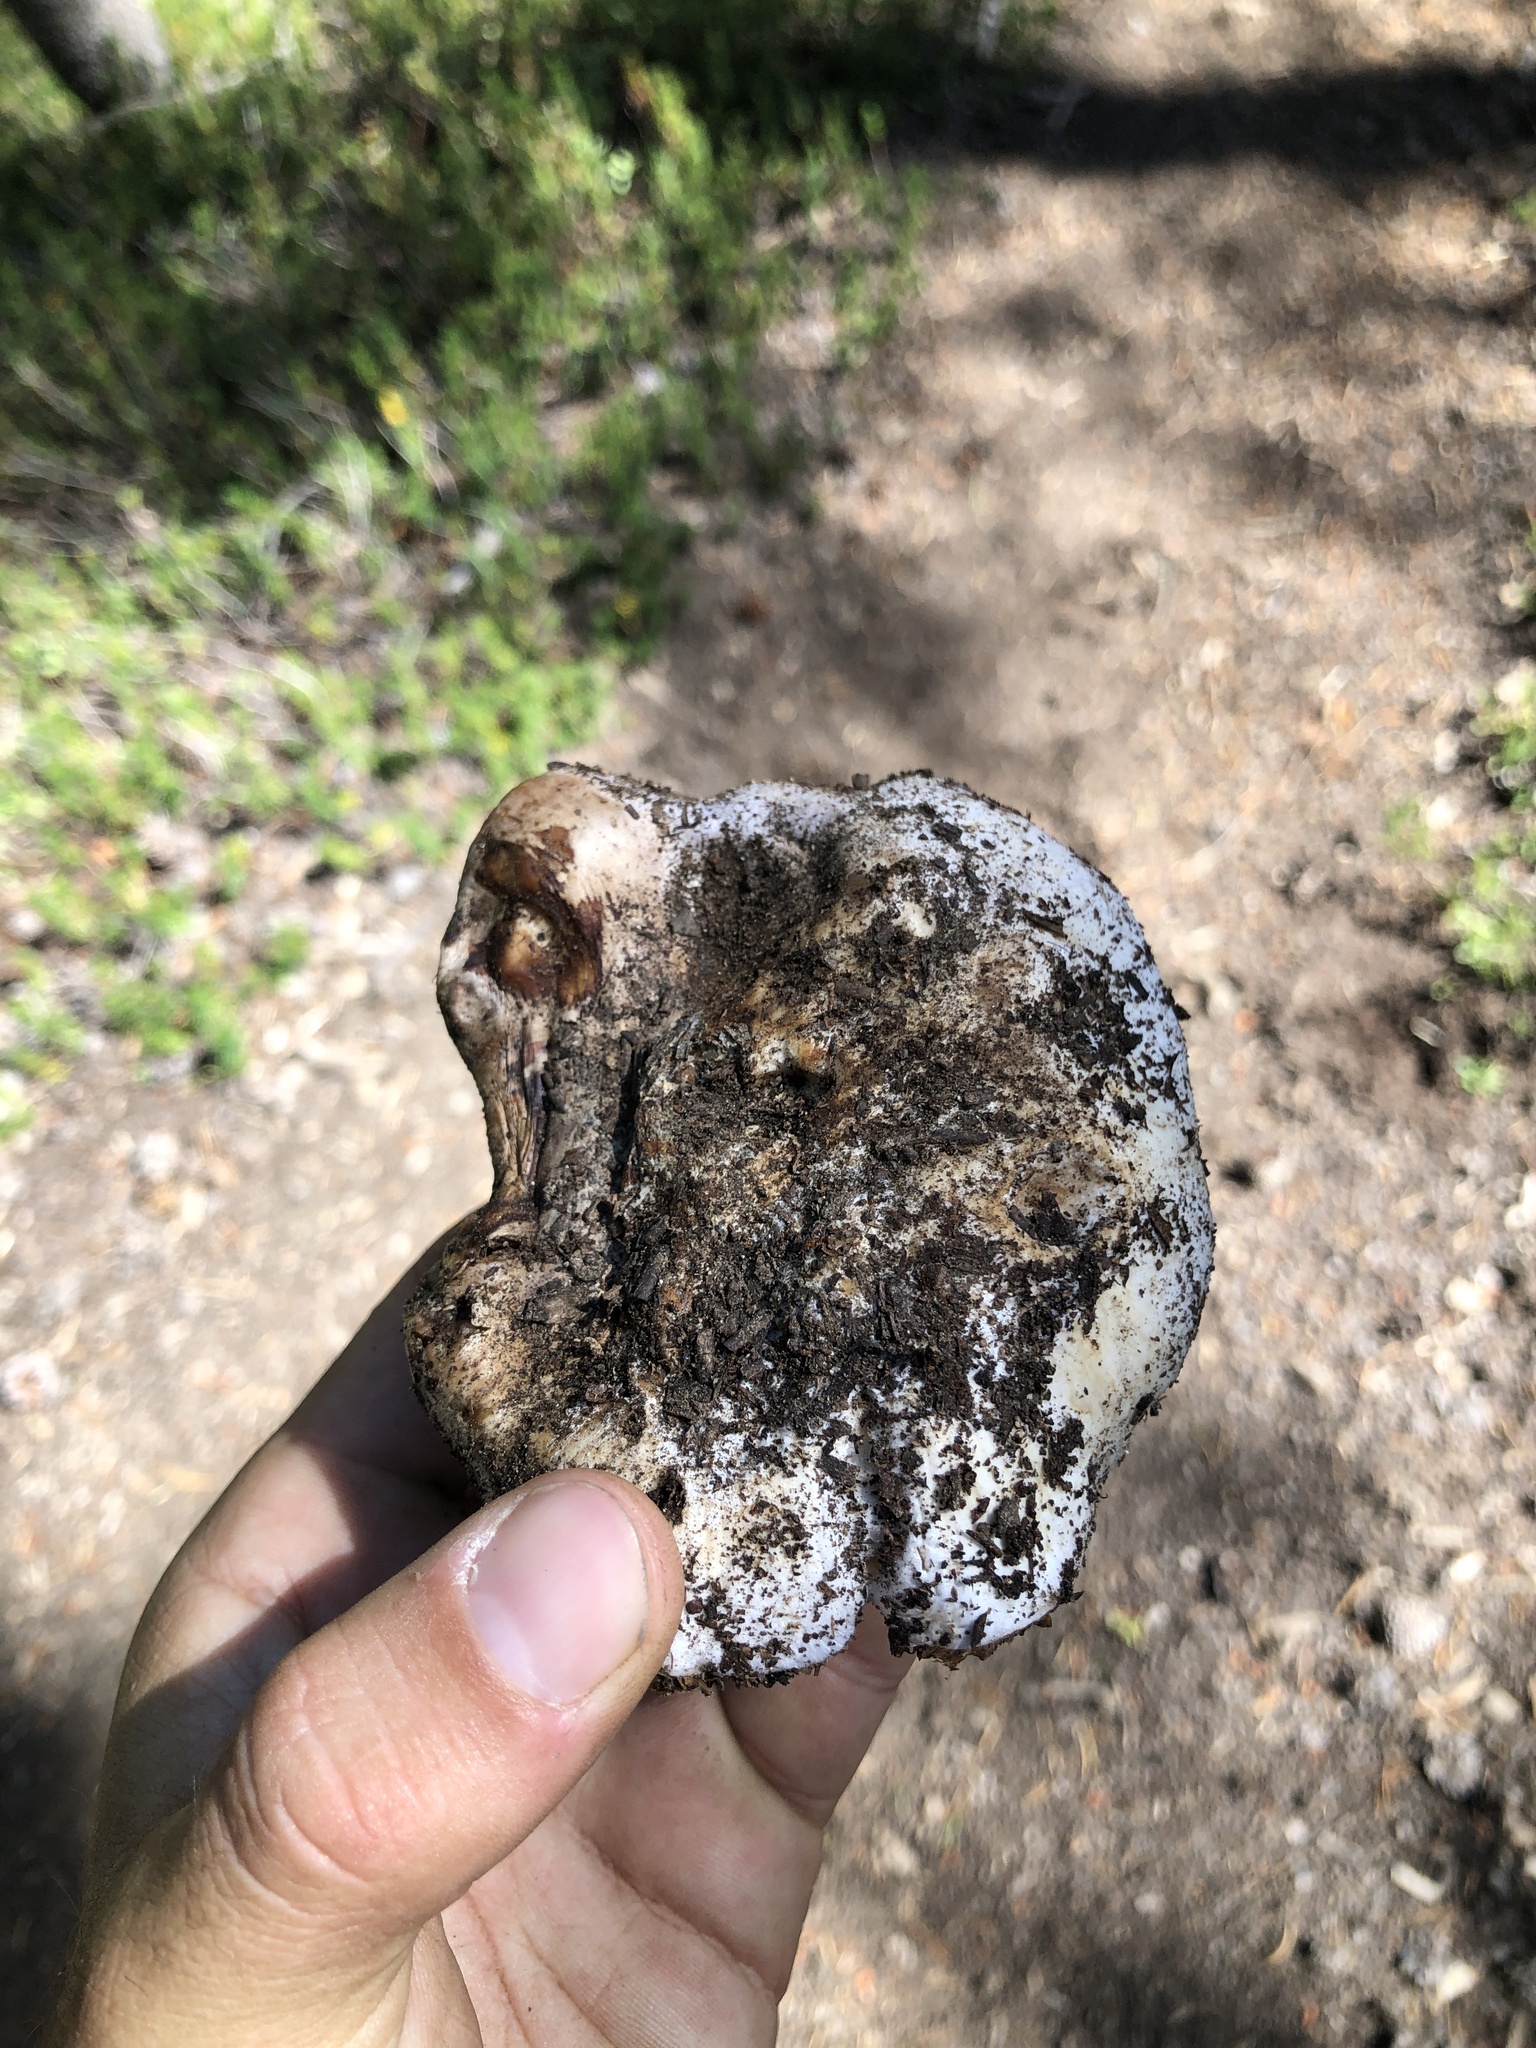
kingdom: Fungi
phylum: Basidiomycota
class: Agaricomycetes
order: Agaricales
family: Cortinariaceae
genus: Cortinarius
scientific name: Cortinarius magnivelatus
